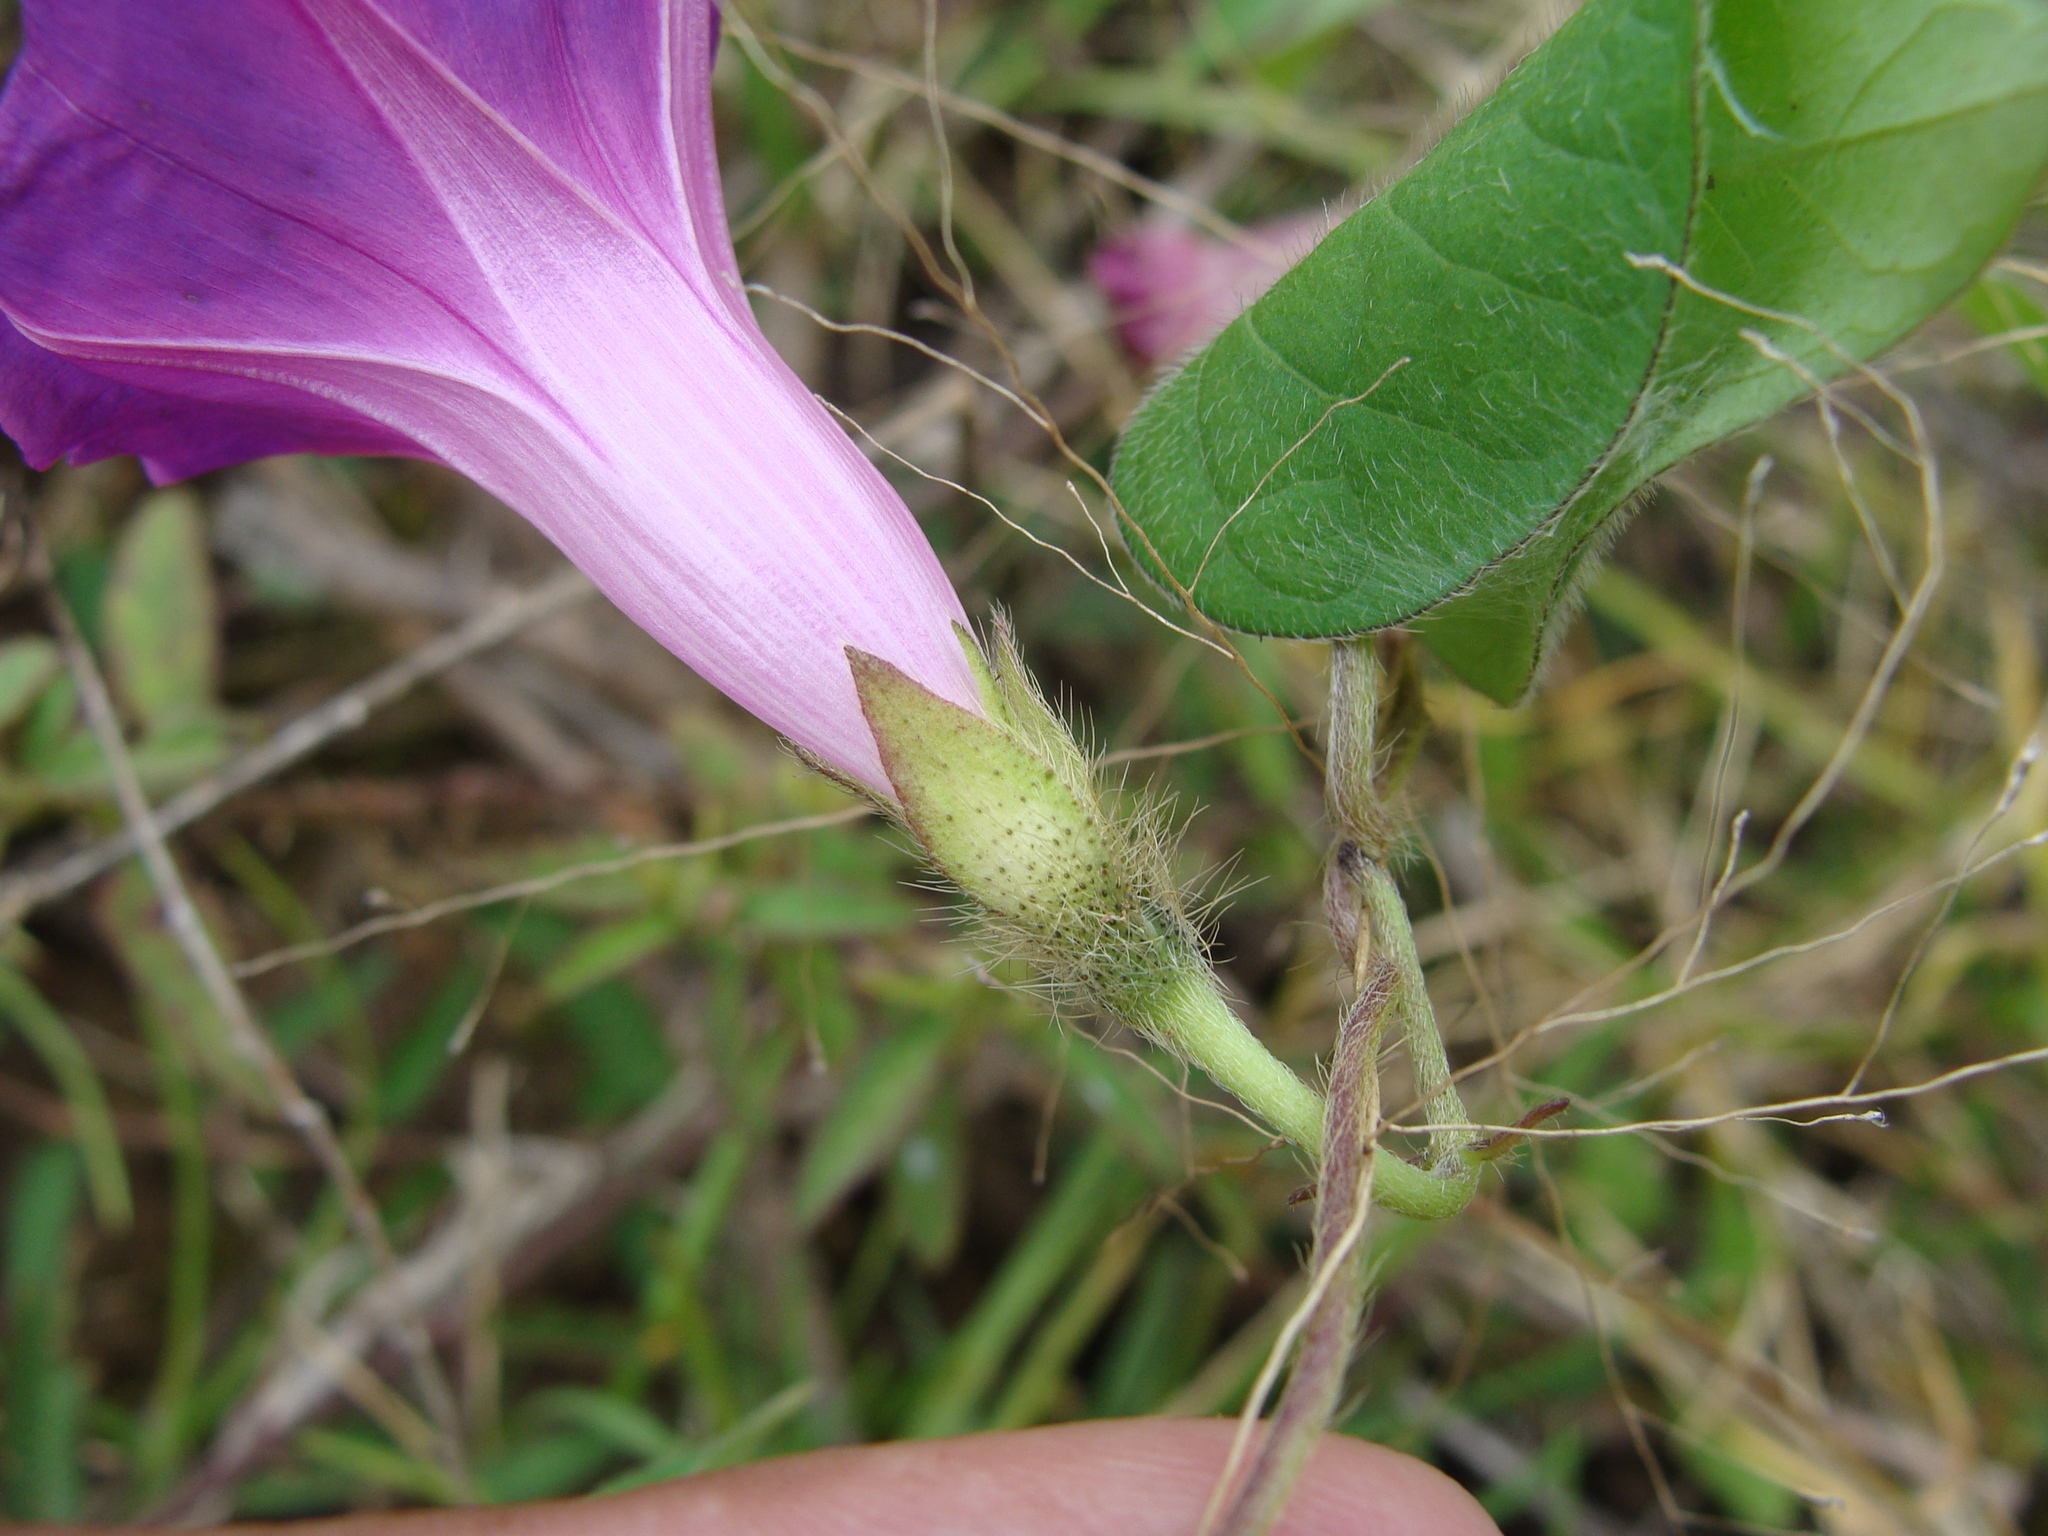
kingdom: Plantae
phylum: Tracheophyta
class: Magnoliopsida
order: Solanales
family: Convolvulaceae
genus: Ipomoea
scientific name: Ipomoea purpurea
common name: Common morning-glory
